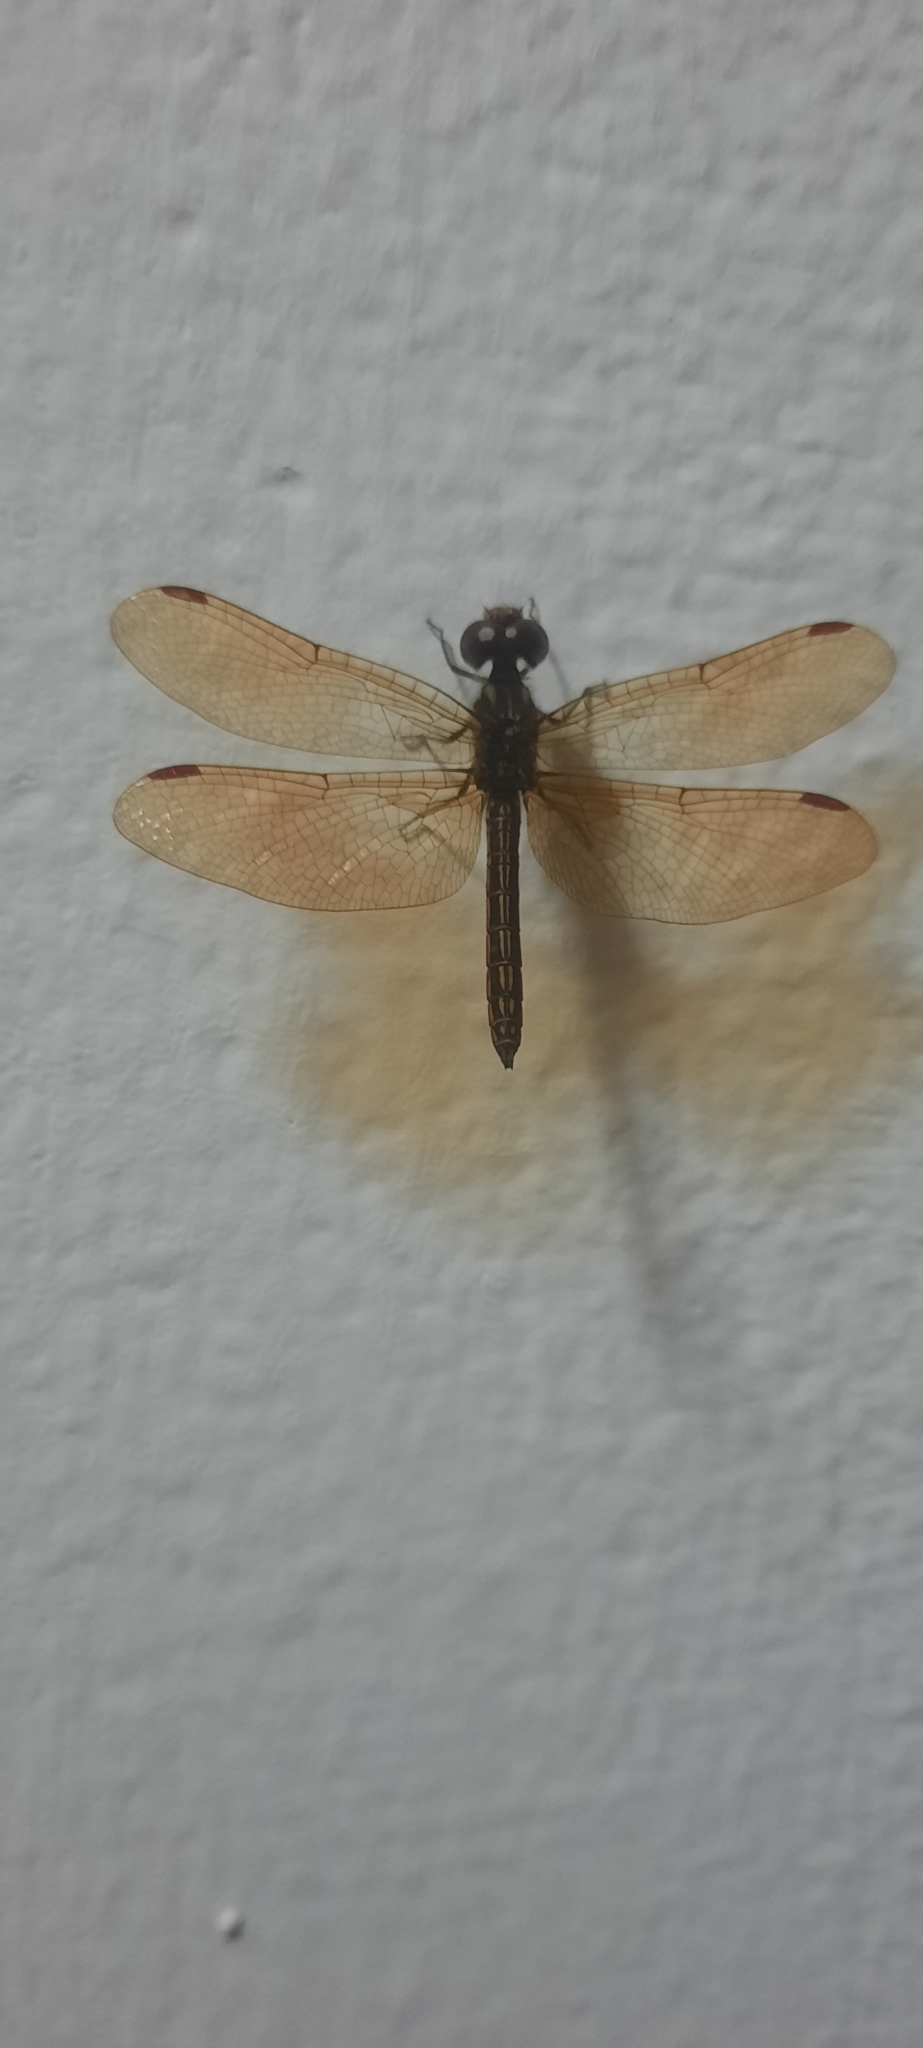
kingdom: Animalia
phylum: Arthropoda
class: Insecta
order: Odonata
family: Libellulidae
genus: Perithemis
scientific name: Perithemis domitia
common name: Slough amberwing
